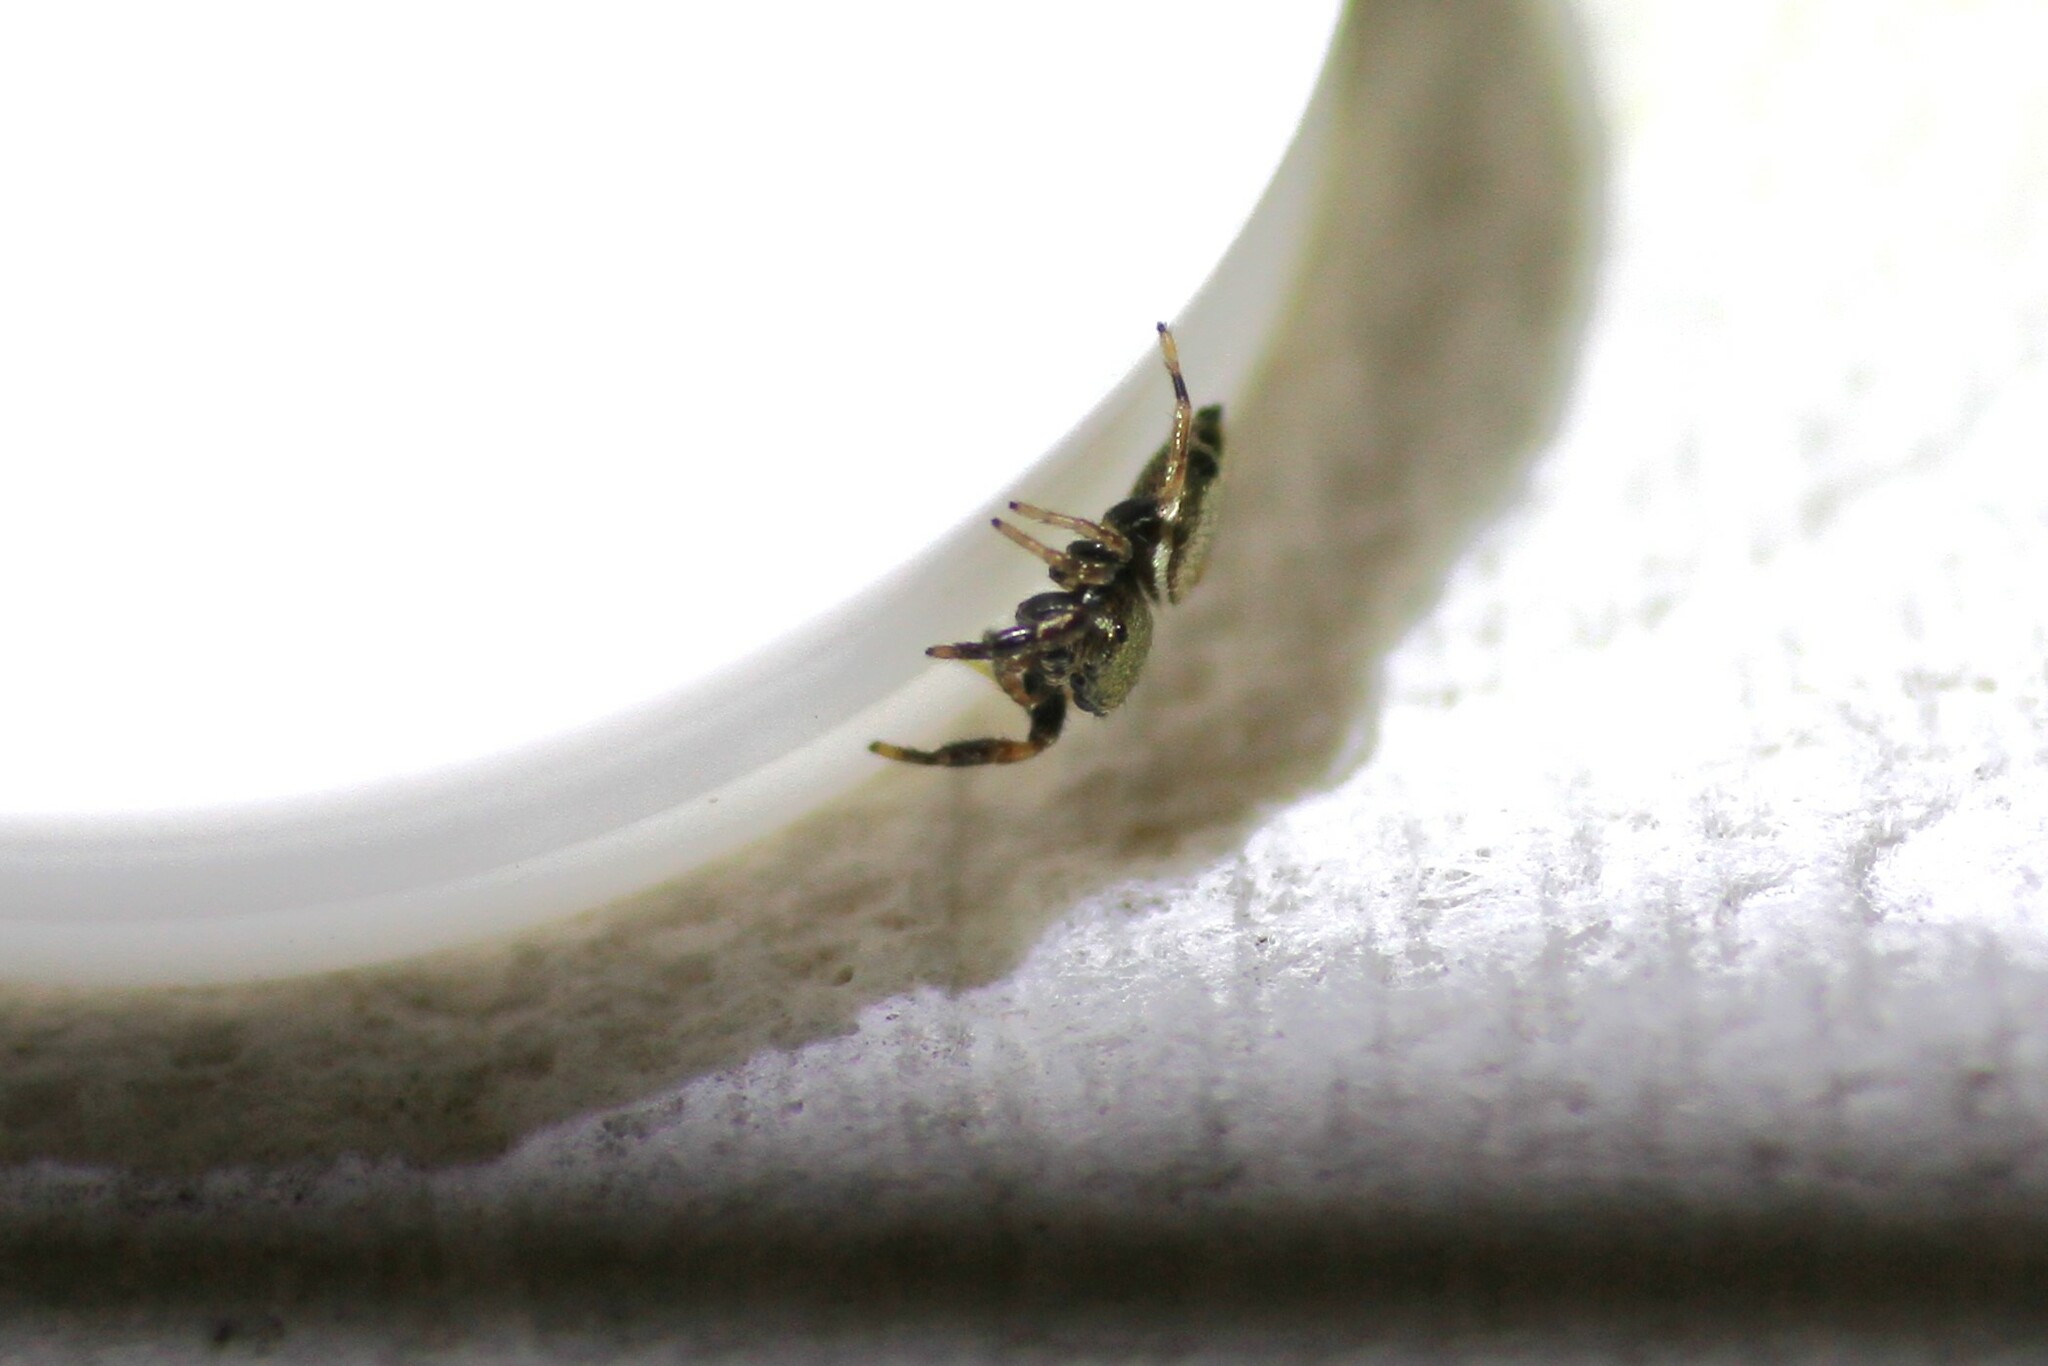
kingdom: Animalia
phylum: Arthropoda
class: Arachnida
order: Araneae
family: Salticidae
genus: Sassacus
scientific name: Sassacus vitis
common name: Jumping spiders
